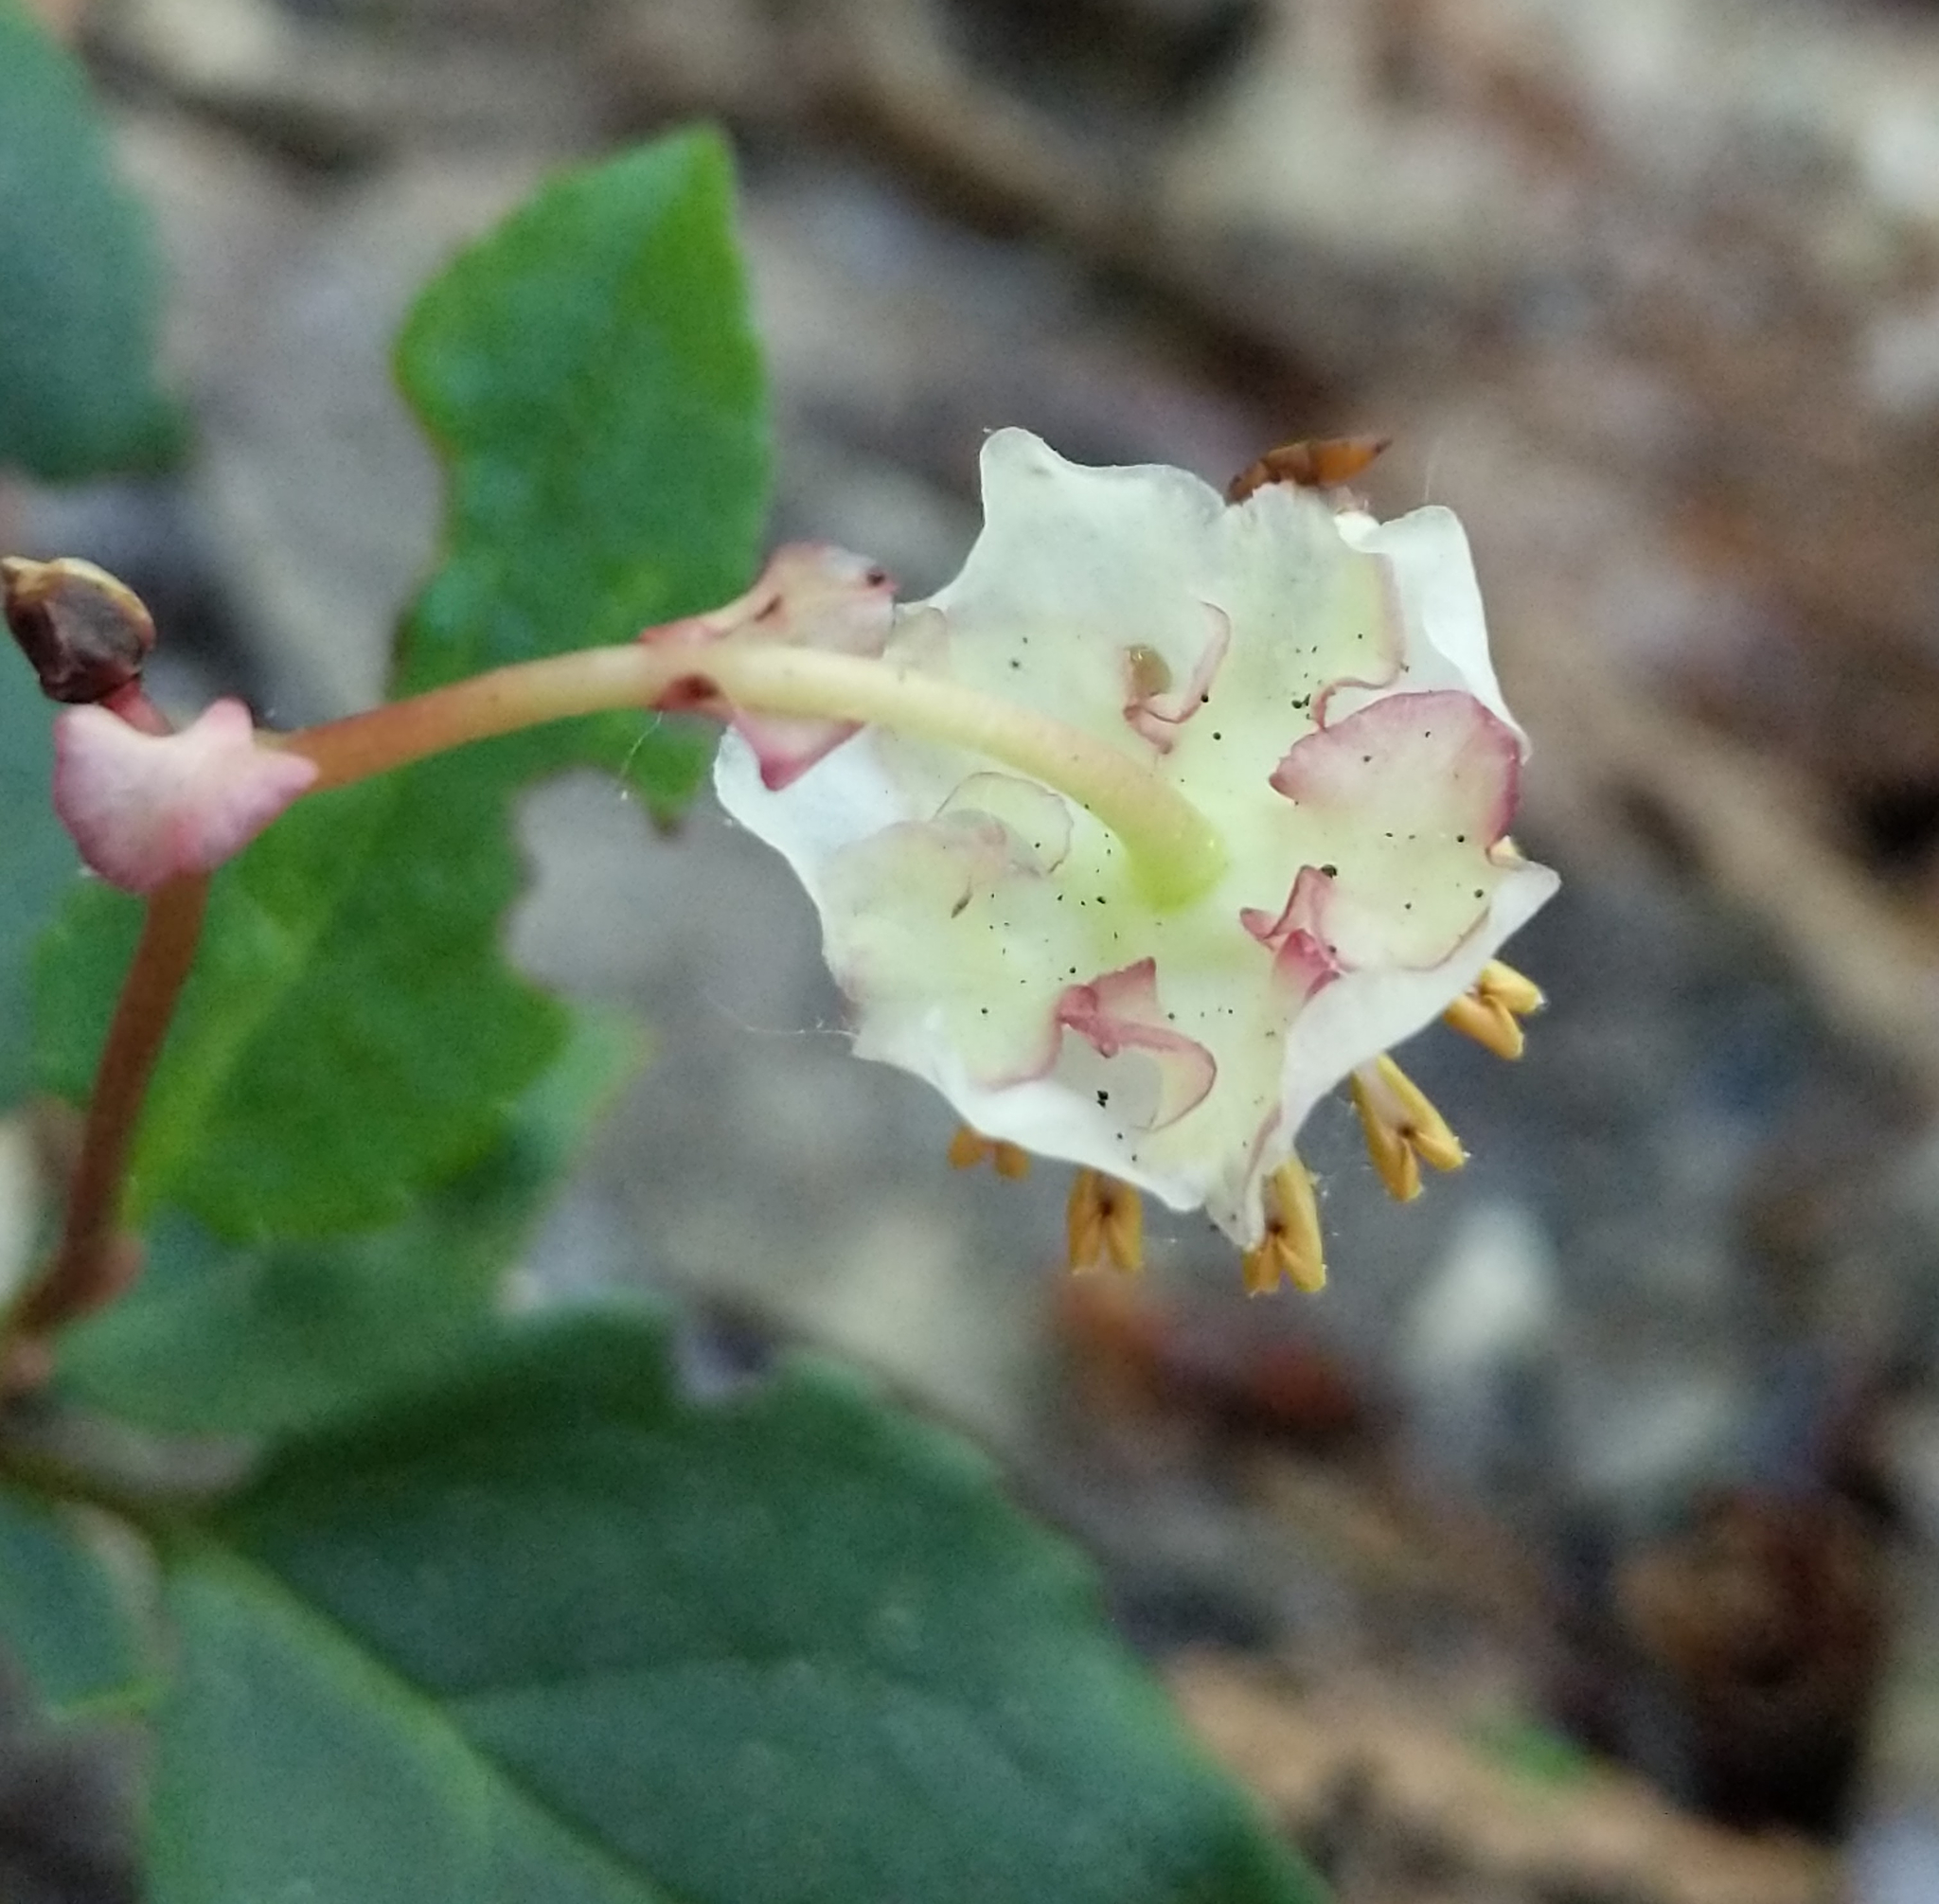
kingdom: Plantae
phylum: Tracheophyta
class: Magnoliopsida
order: Ericales
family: Ericaceae
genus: Chimaphila
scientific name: Chimaphila menziesii
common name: Menzies' pipsissewa
